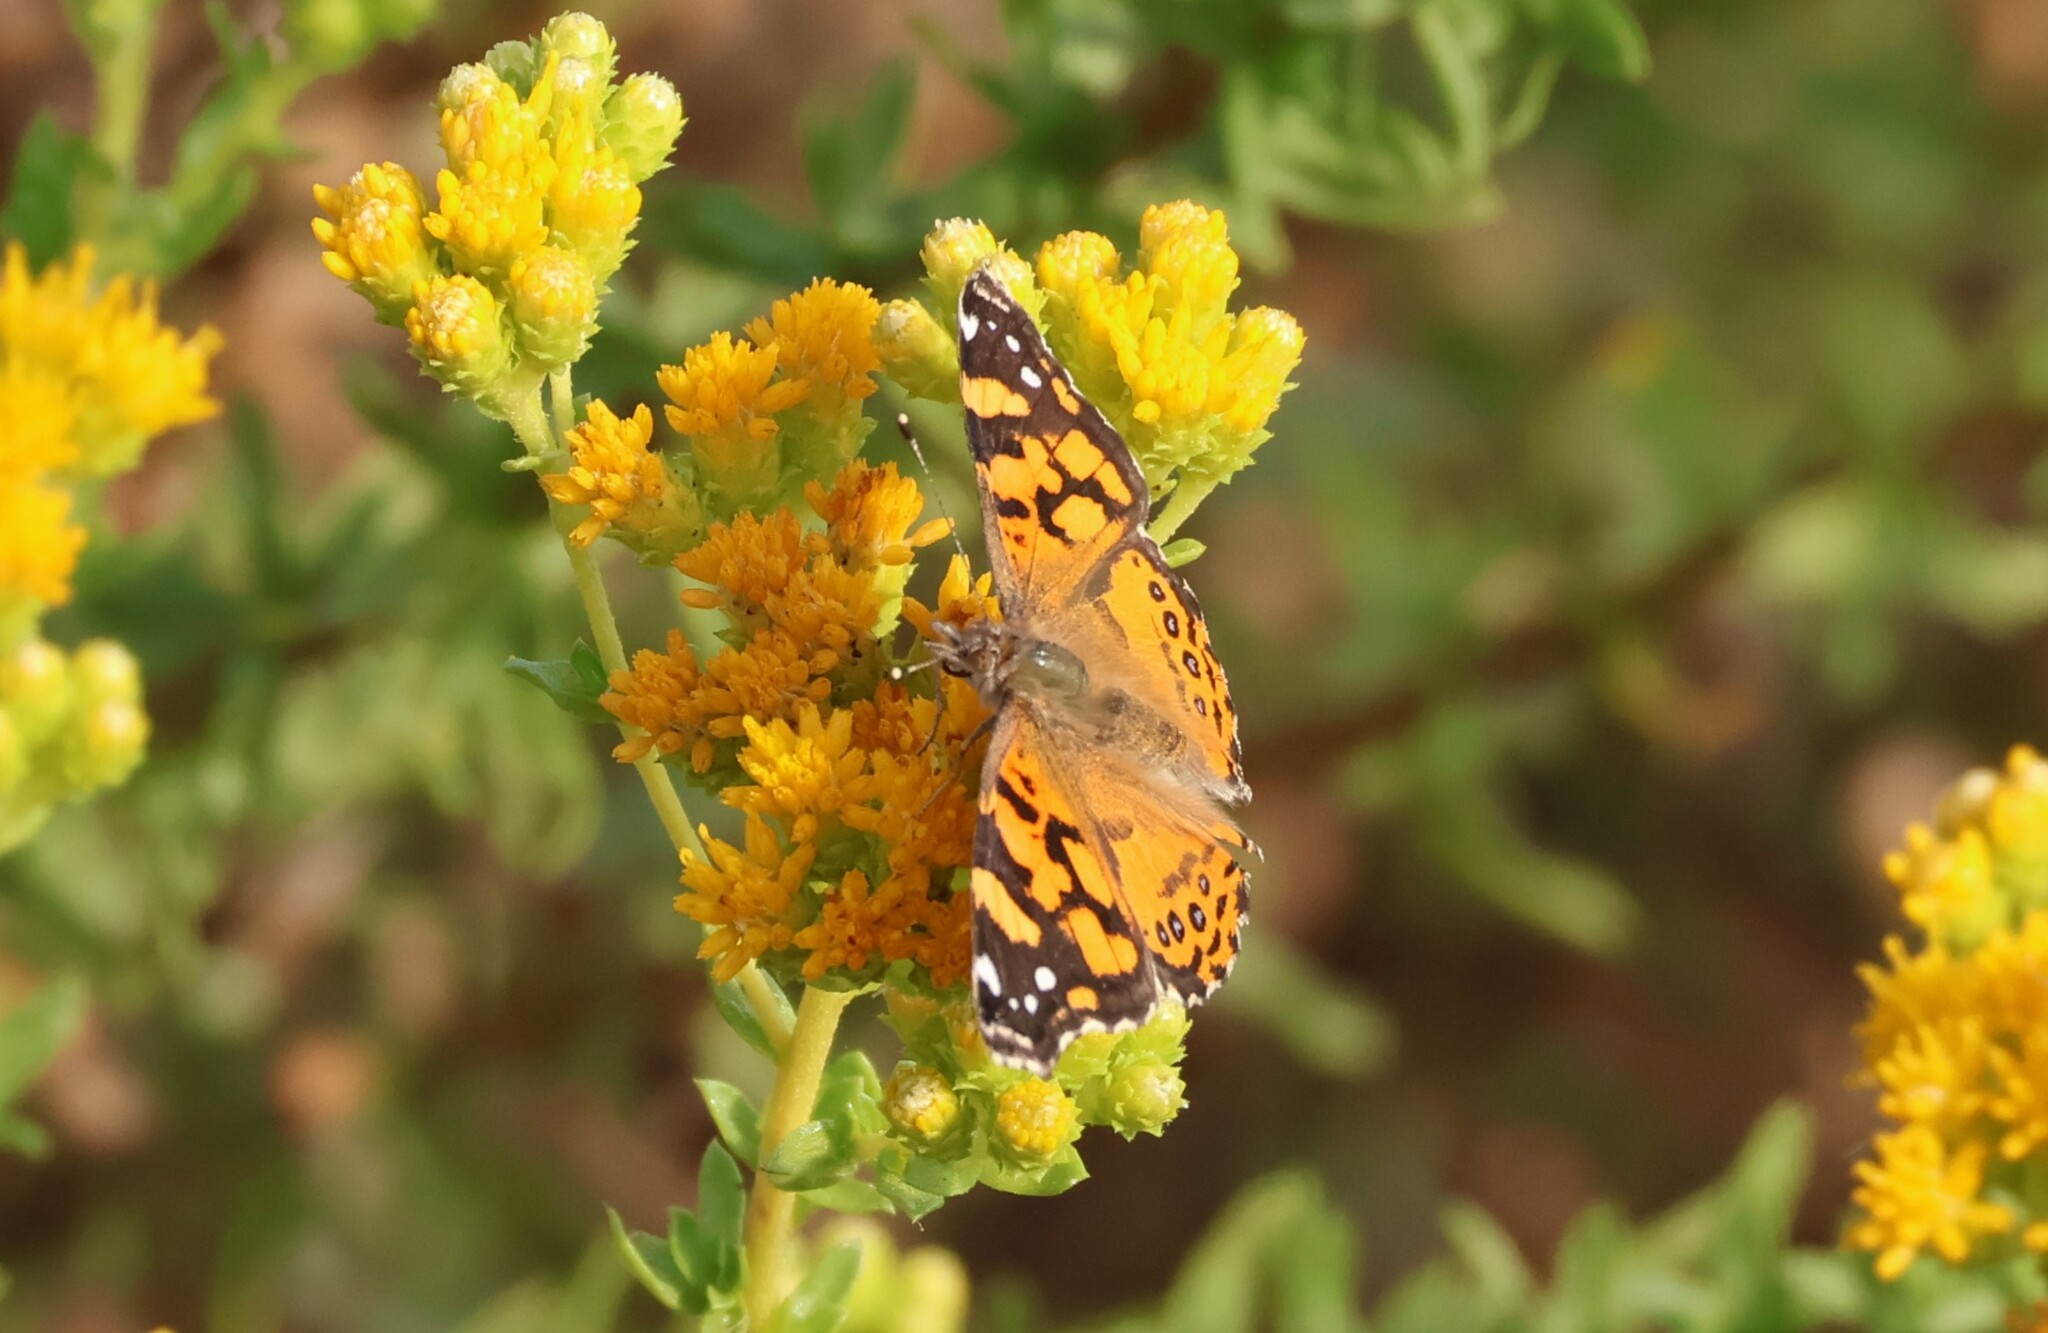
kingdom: Animalia
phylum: Arthropoda
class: Insecta
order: Lepidoptera
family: Nymphalidae
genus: Vanessa
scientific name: Vanessa annabella
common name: West coast lady
